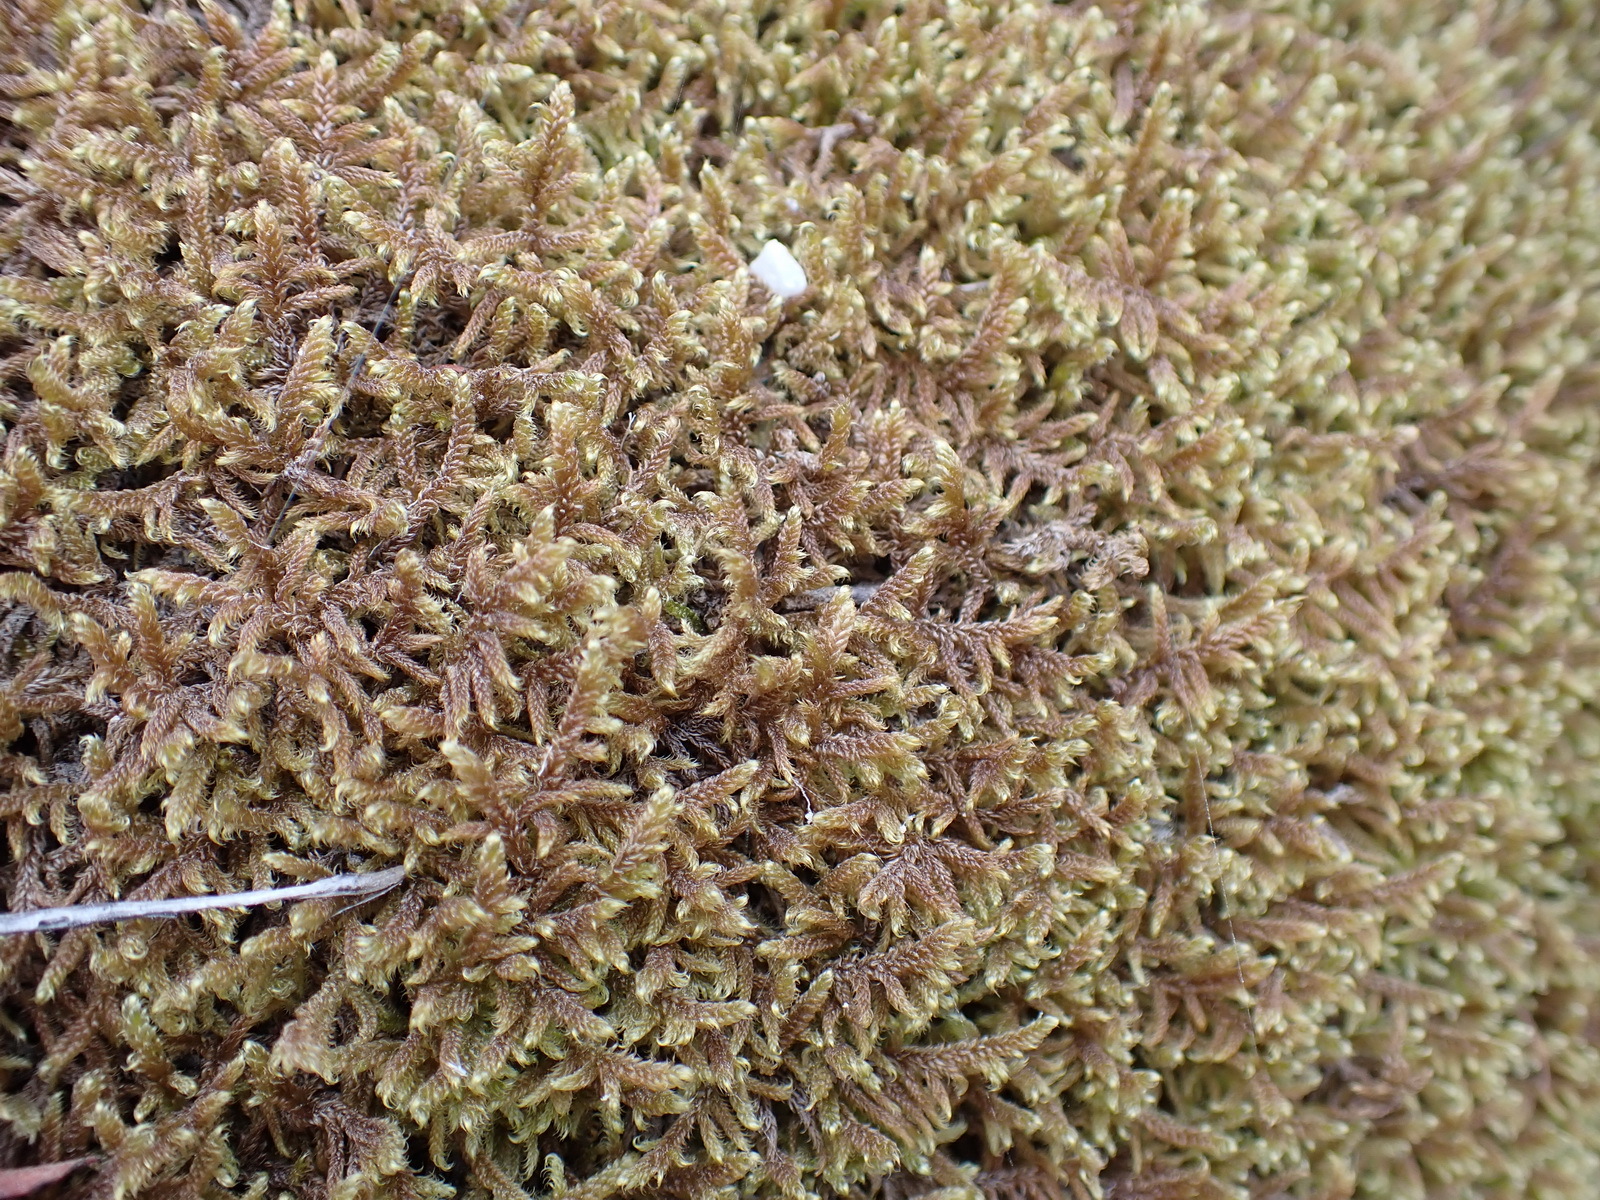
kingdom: Plantae
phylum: Bryophyta
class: Bryopsida
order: Hypnales
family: Hypnaceae
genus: Hypnum
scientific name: Hypnum cupressiforme
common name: Cypress-leaved plait-moss
